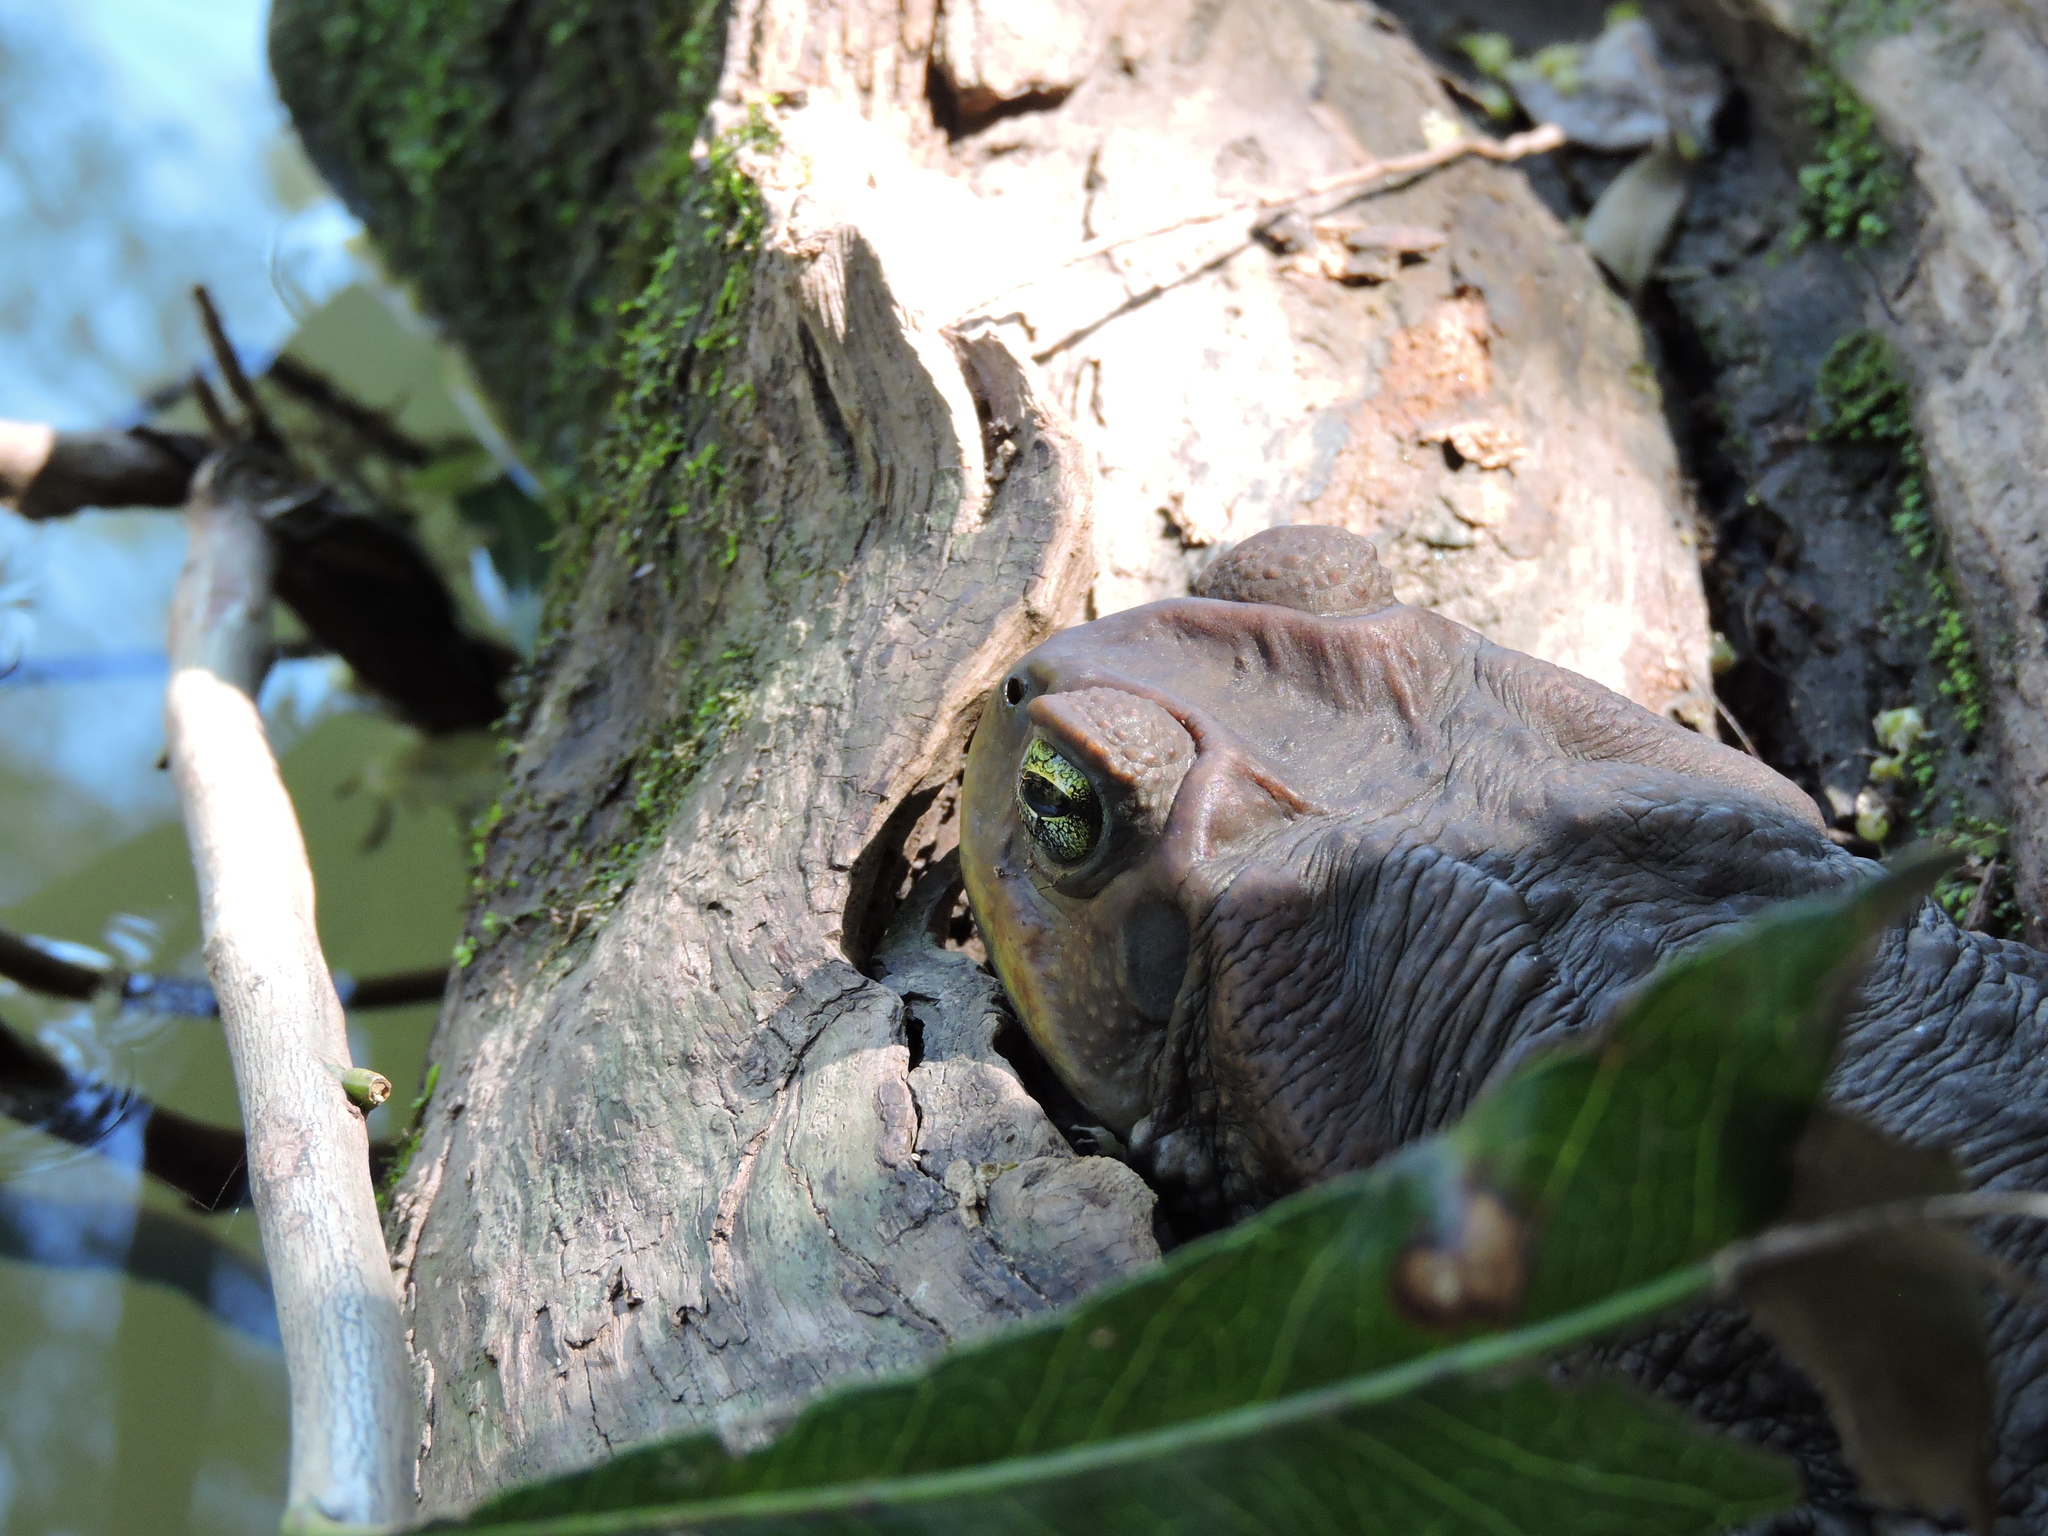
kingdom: Animalia
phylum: Chordata
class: Amphibia
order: Anura
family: Bufonidae
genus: Rhinella
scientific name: Rhinella achavali
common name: Achaval’s toad
